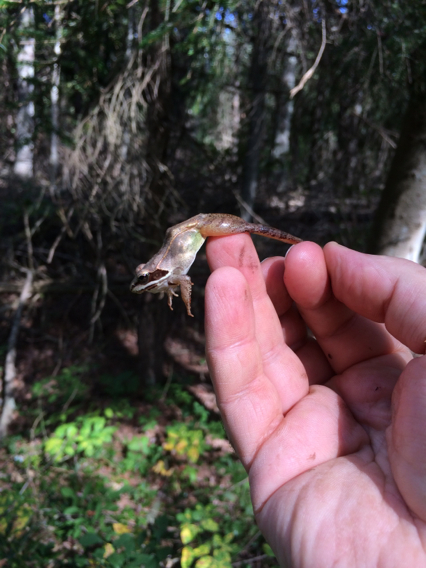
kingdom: Animalia
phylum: Chordata
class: Amphibia
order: Anura
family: Ranidae
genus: Lithobates
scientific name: Lithobates sylvaticus
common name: Wood frog
